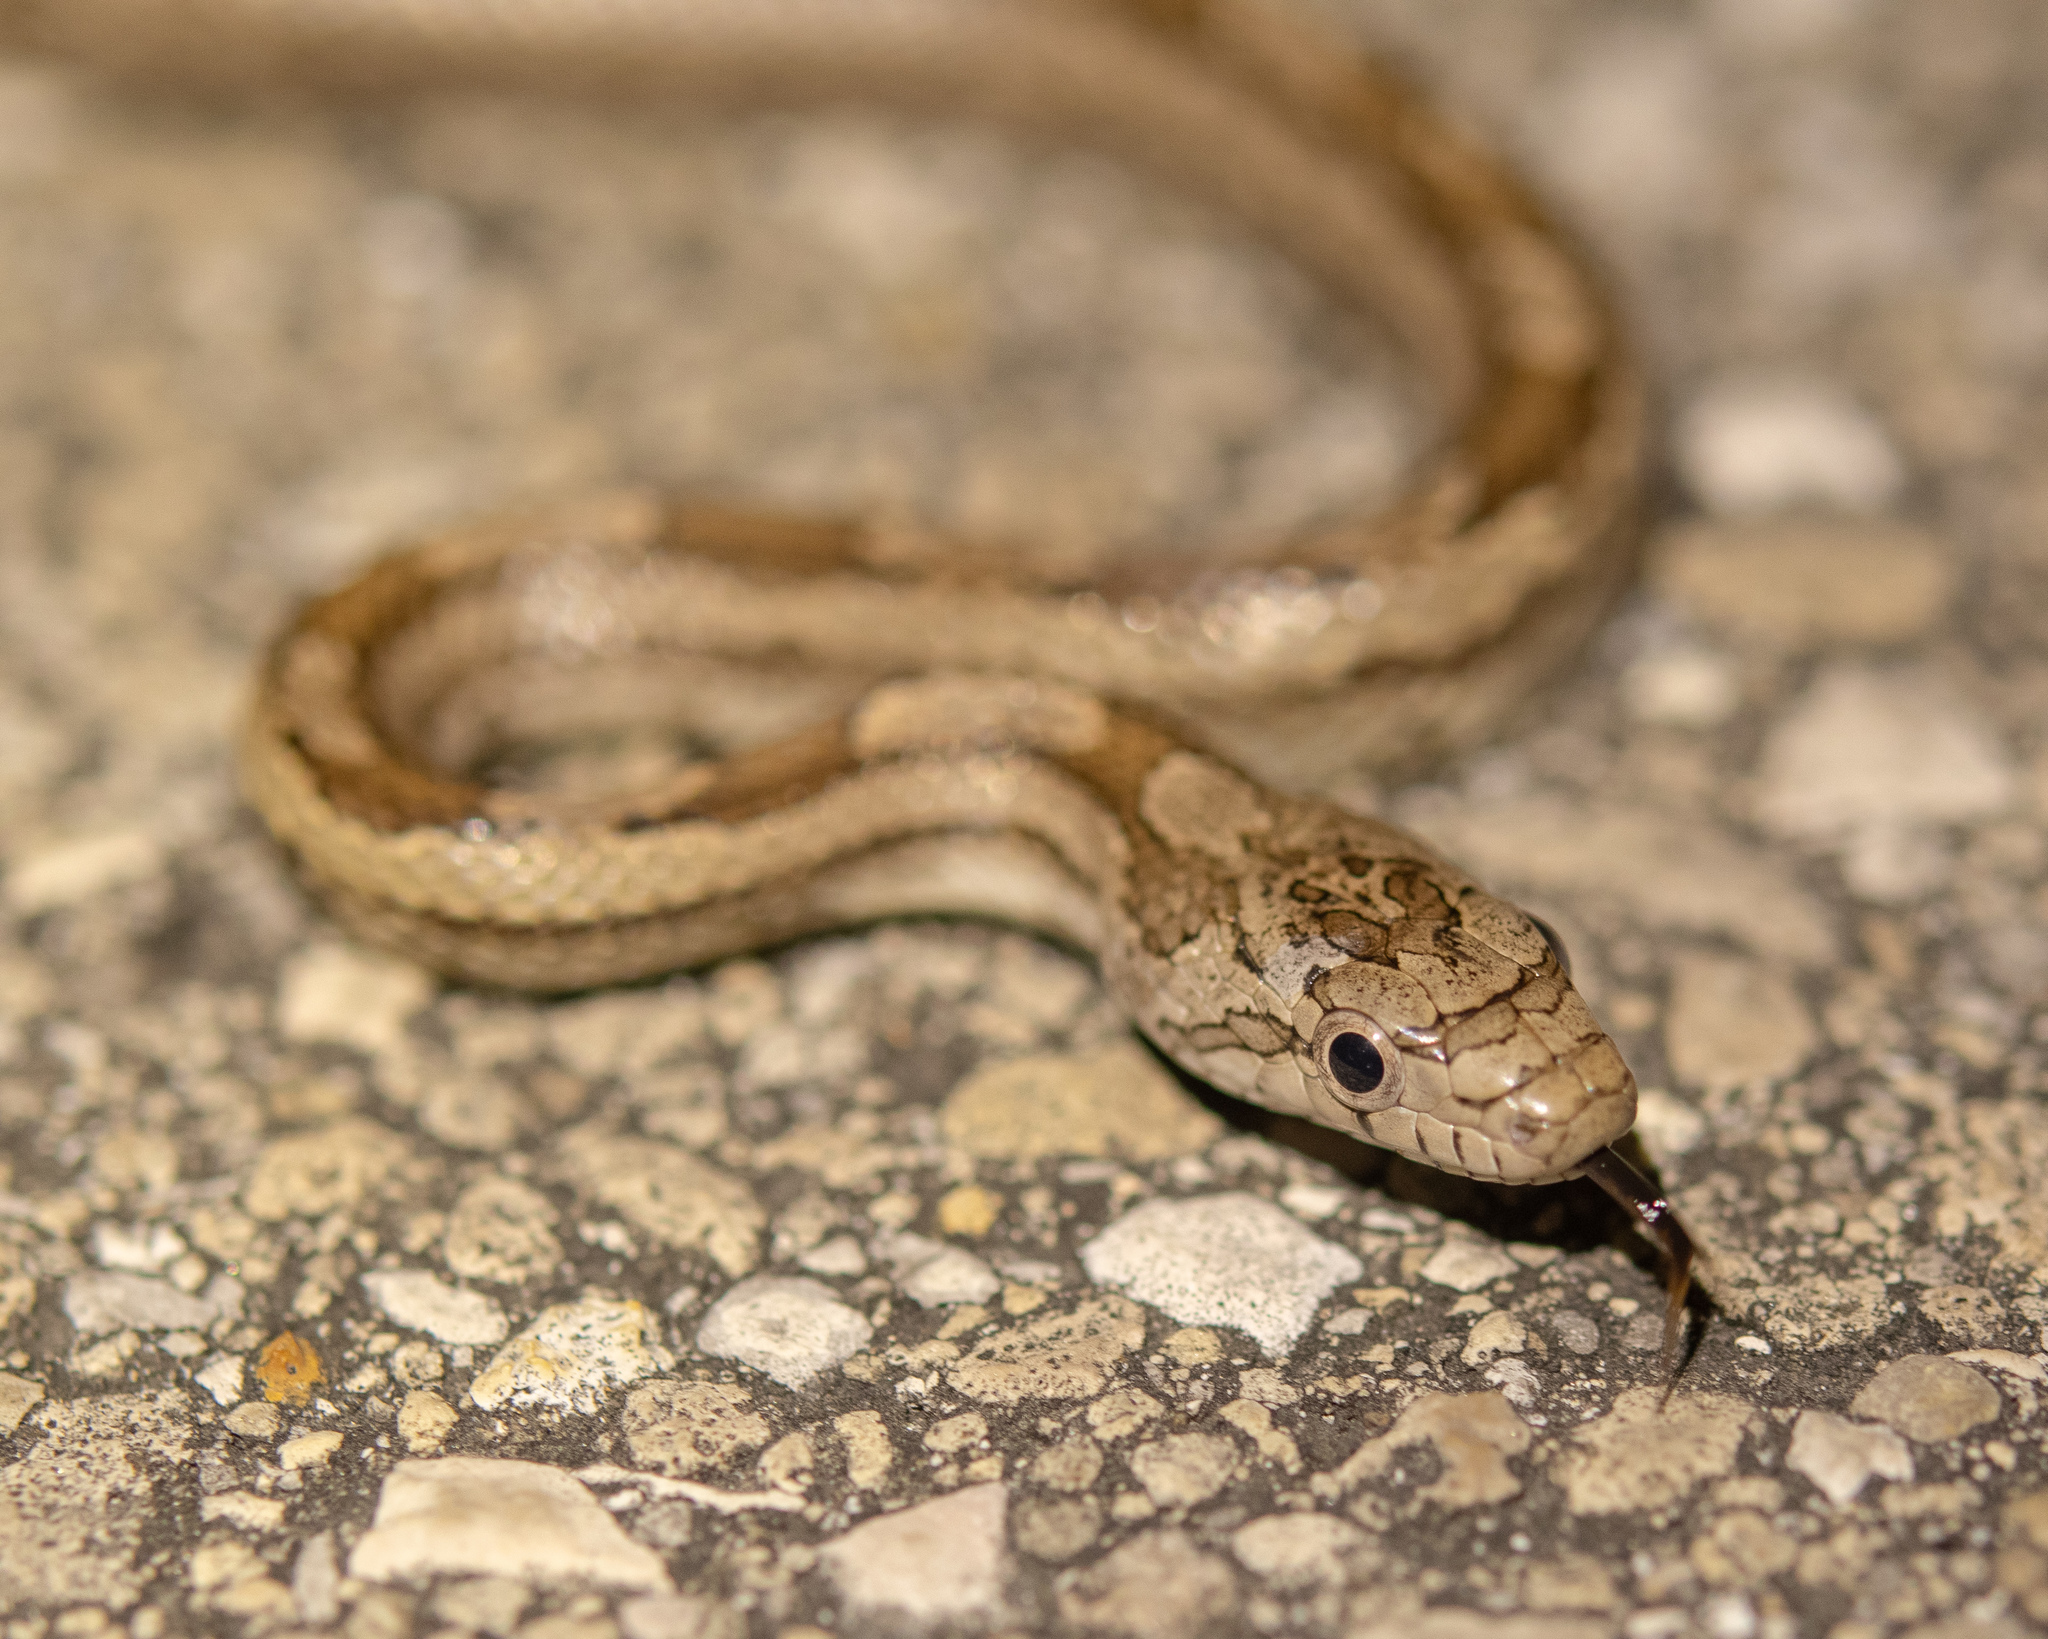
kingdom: Animalia
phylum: Chordata
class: Squamata
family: Colubridae
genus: Pantherophis
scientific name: Pantherophis alleghaniensis
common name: Eastern rat snake
